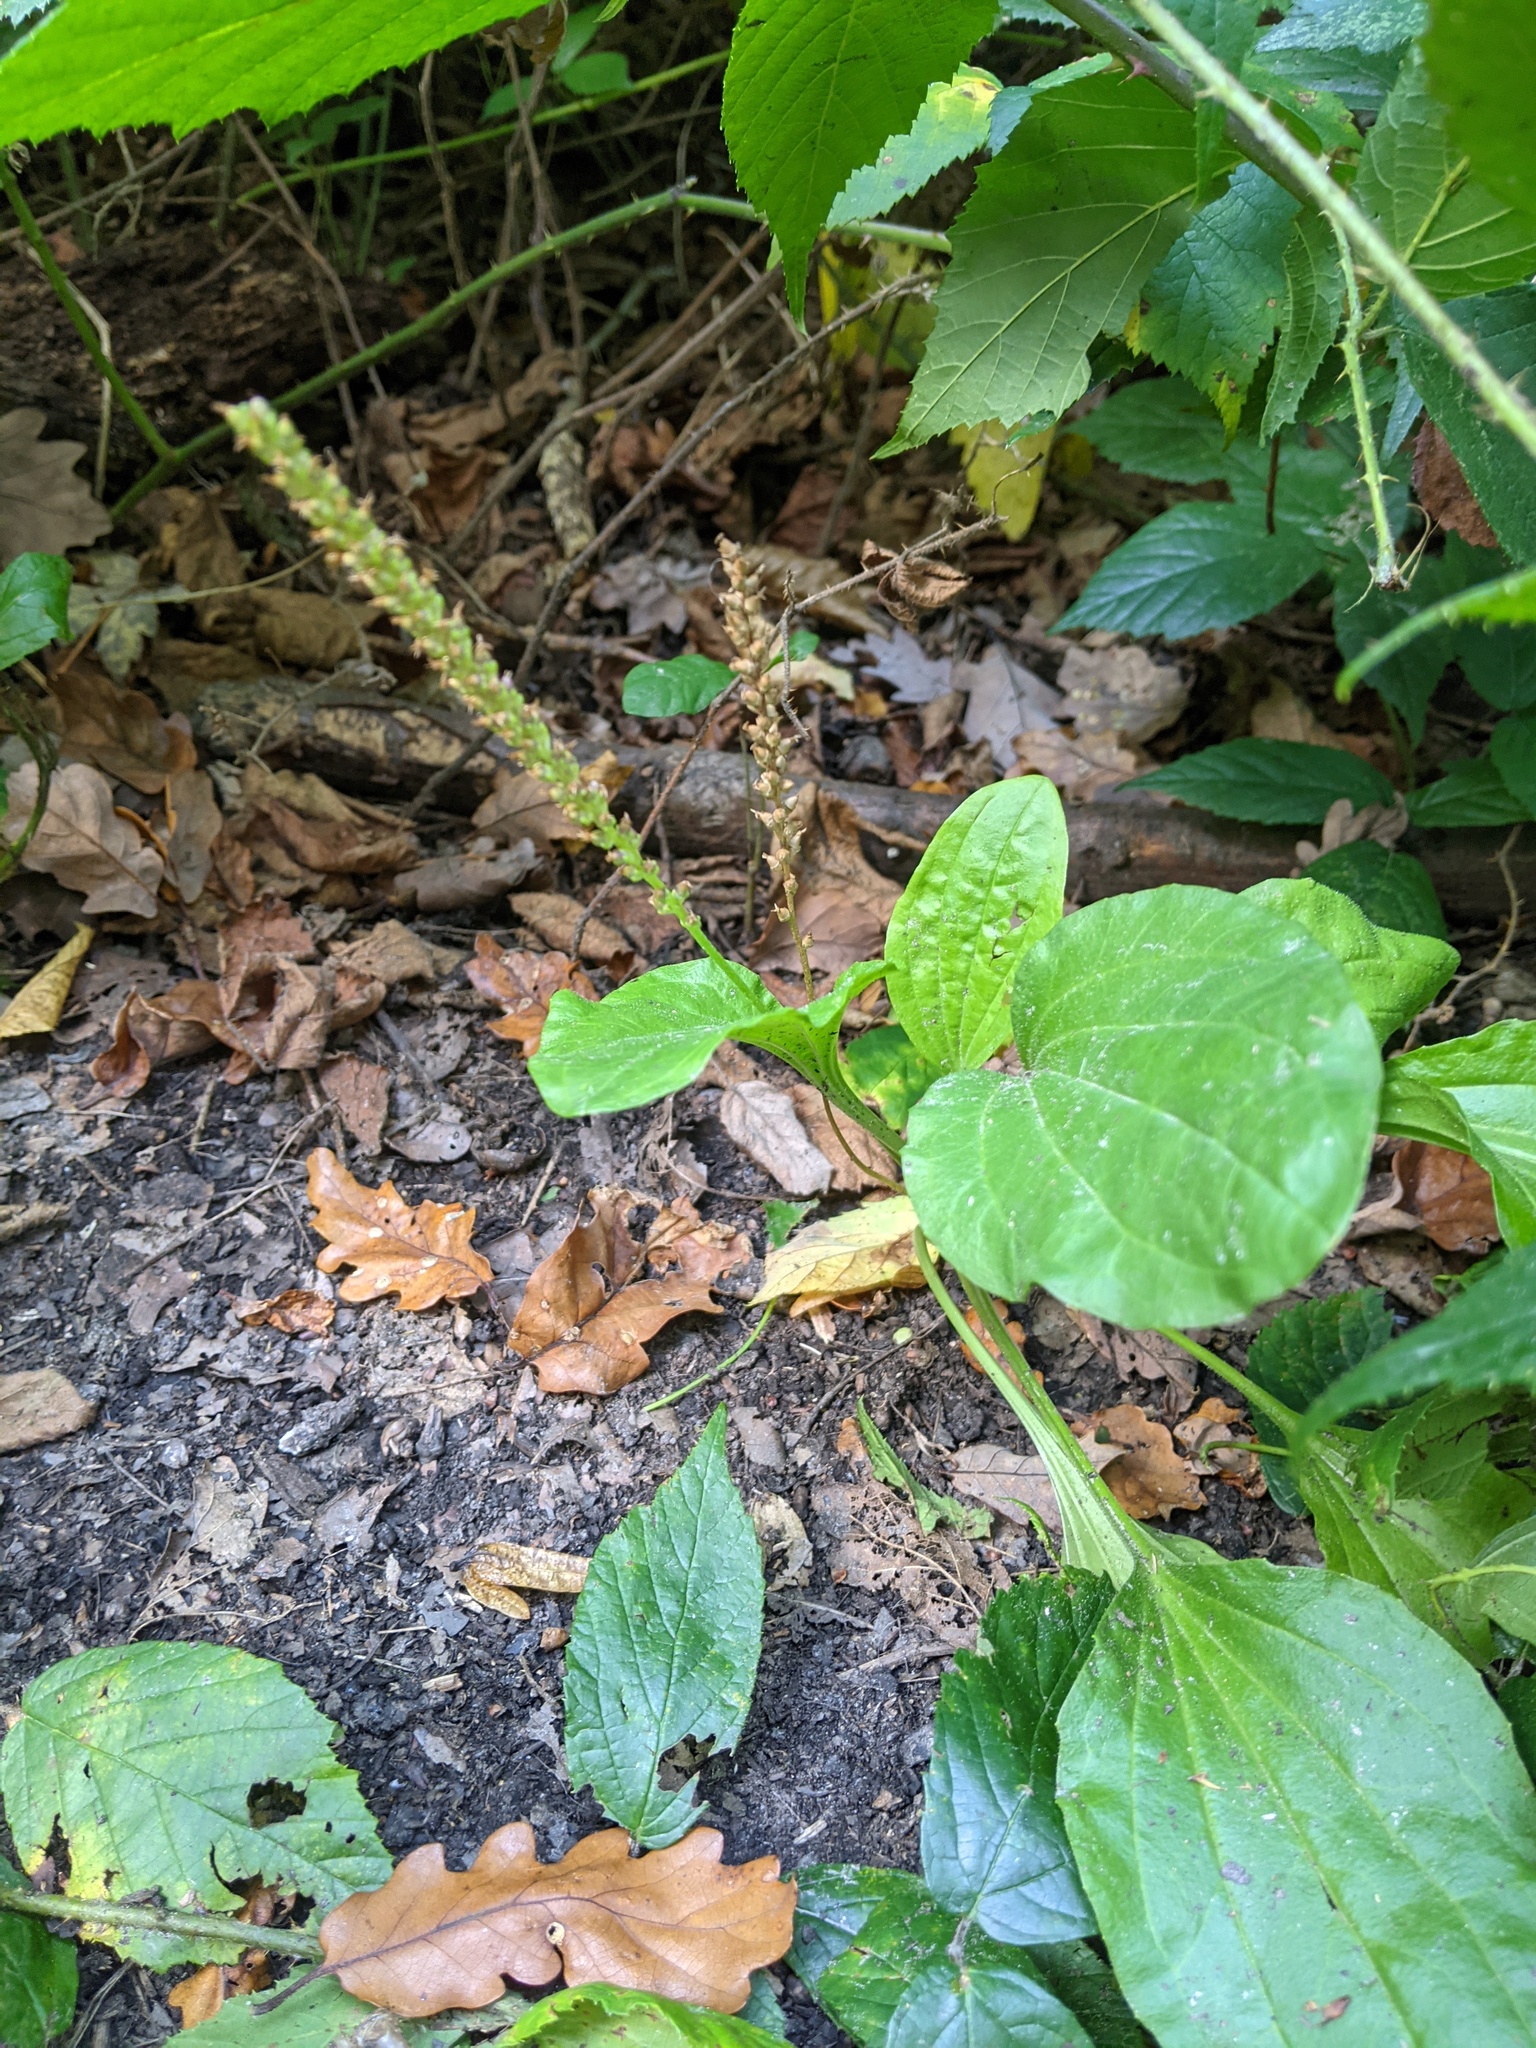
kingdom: Plantae
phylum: Tracheophyta
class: Magnoliopsida
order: Lamiales
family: Plantaginaceae
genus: Plantago
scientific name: Plantago major
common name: Common plantain
